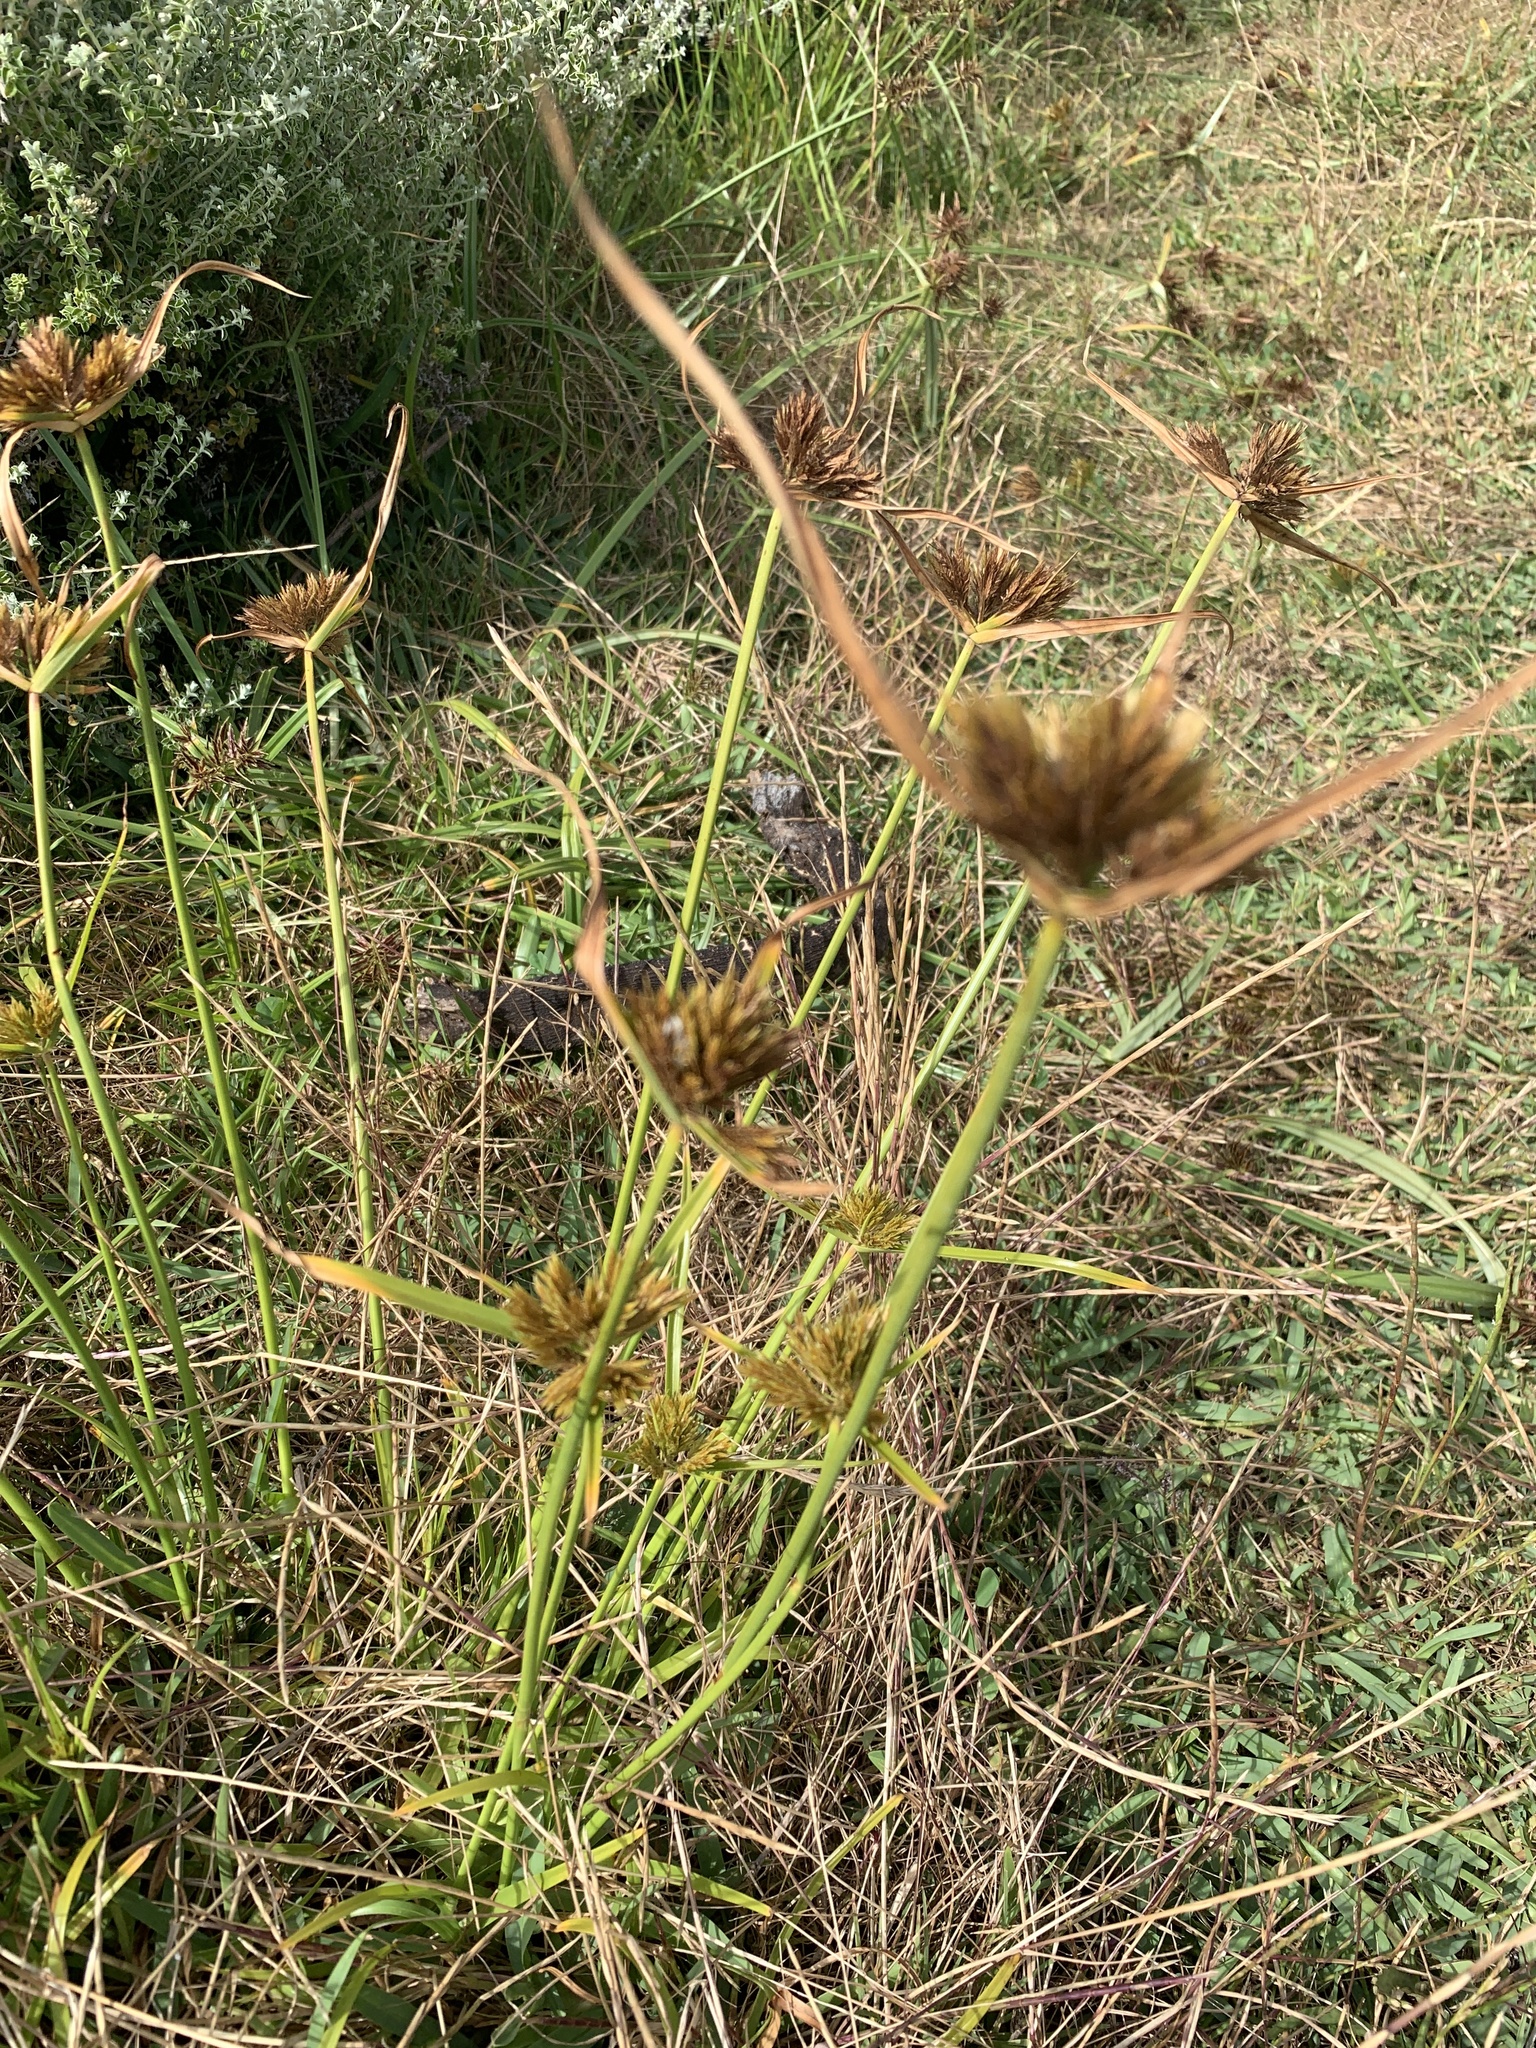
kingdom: Plantae
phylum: Tracheophyta
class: Liliopsida
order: Poales
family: Cyperaceae
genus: Cyperus
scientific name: Cyperus polystachyos
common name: Bunchy flat sedge
